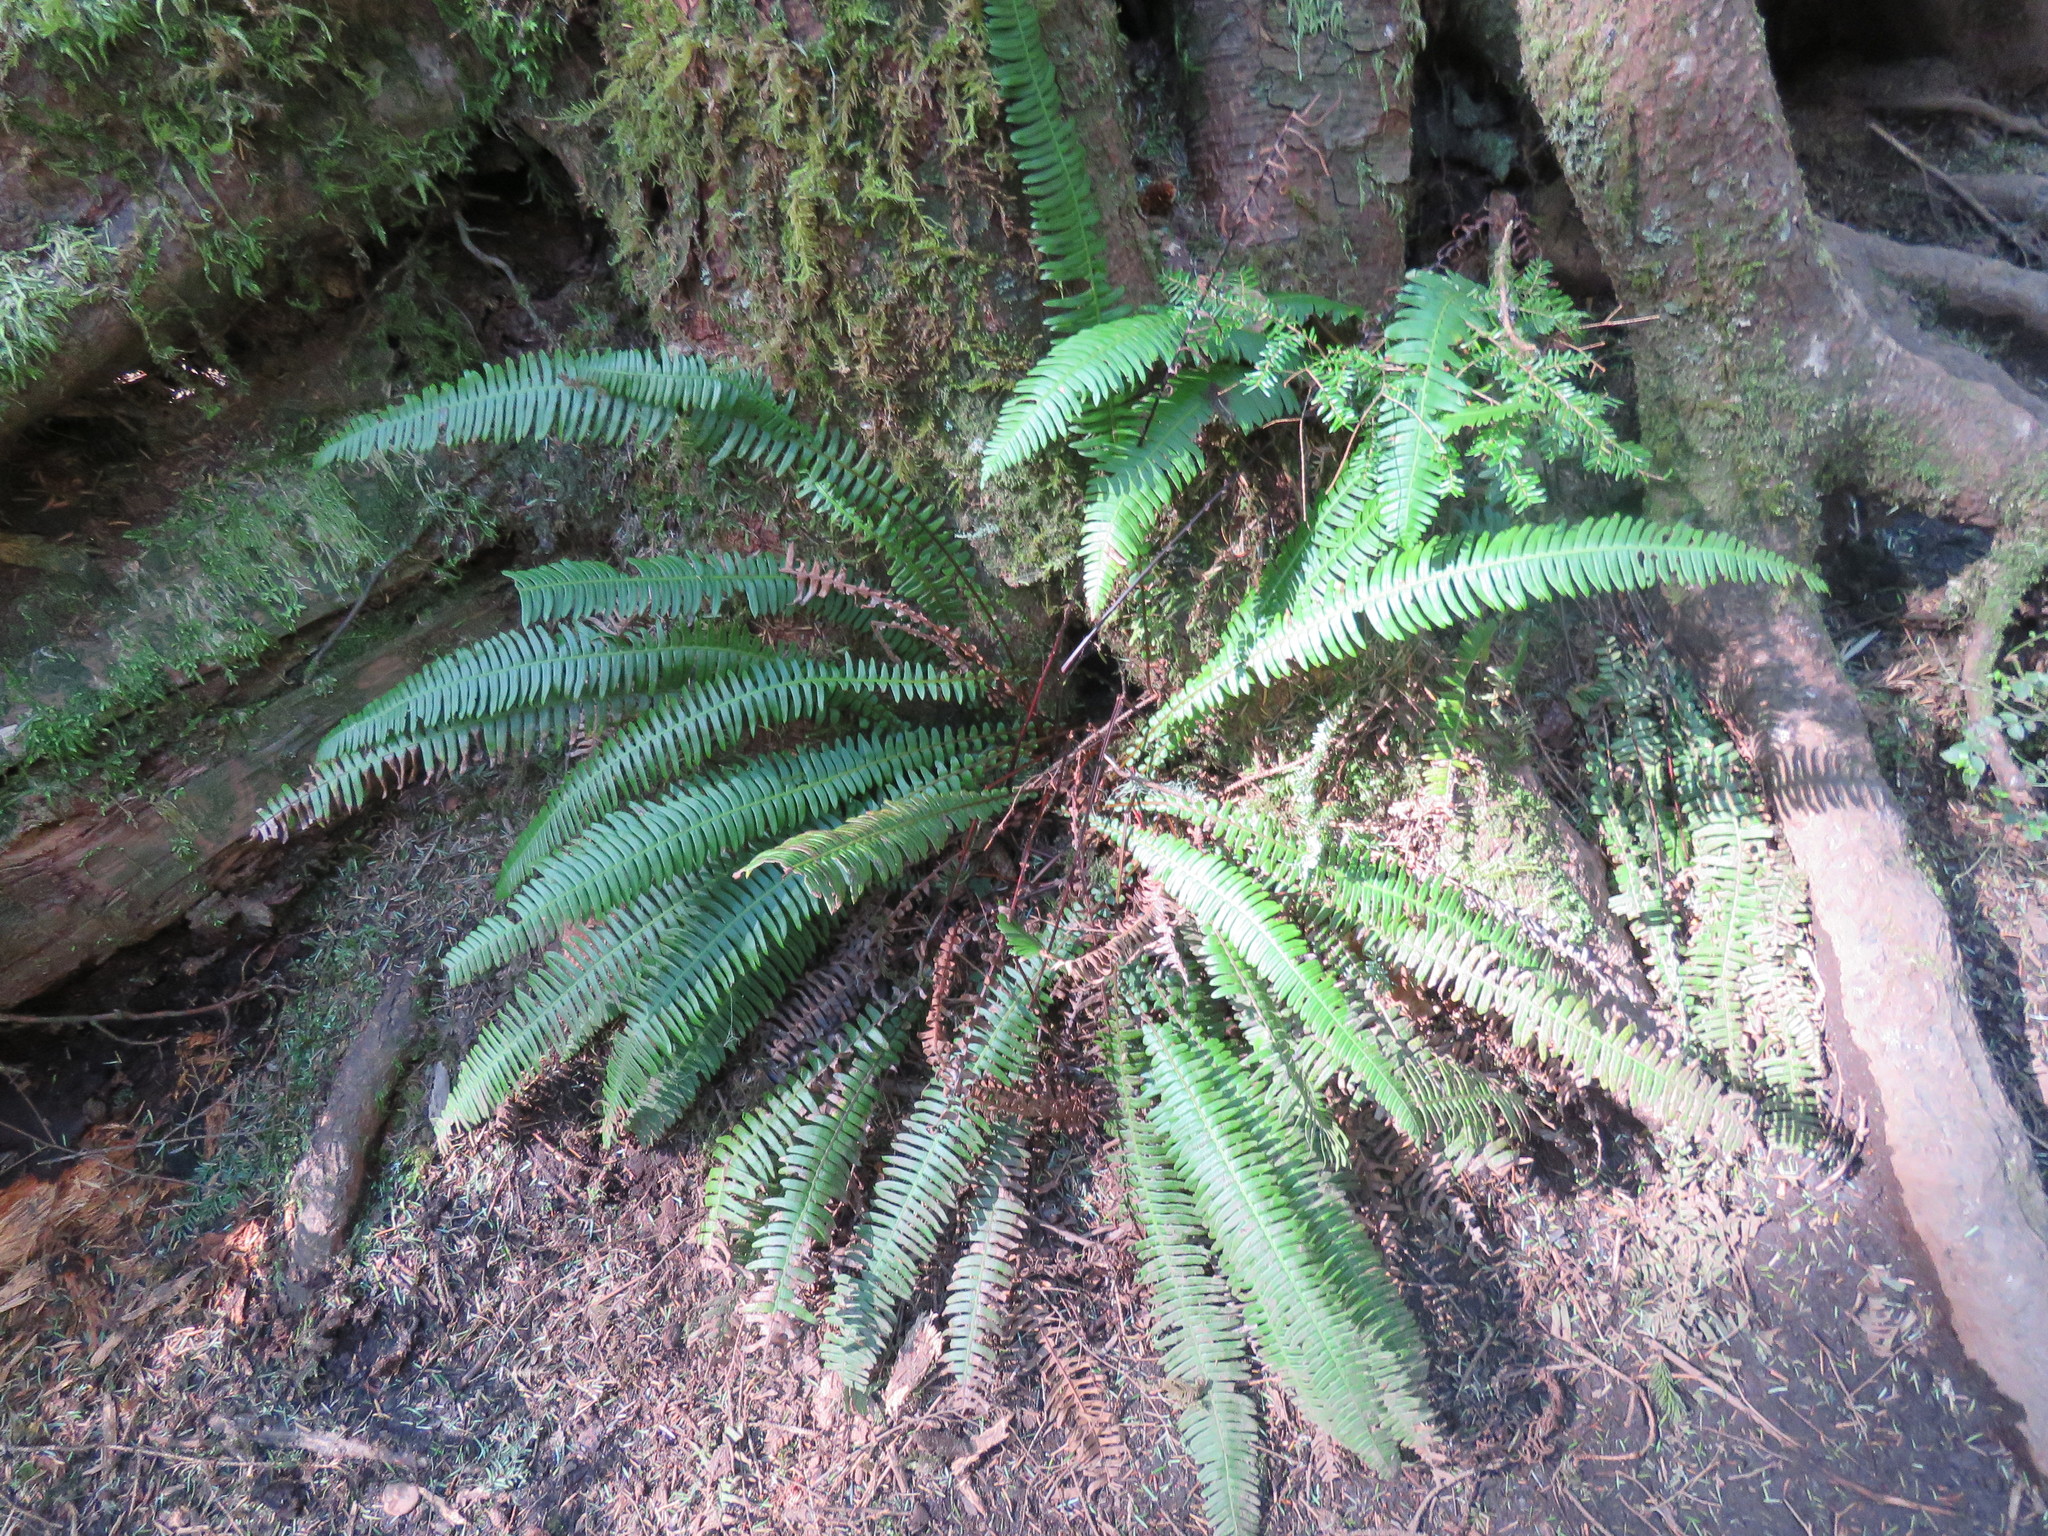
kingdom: Plantae
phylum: Tracheophyta
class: Polypodiopsida
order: Polypodiales
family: Blechnaceae
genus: Struthiopteris
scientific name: Struthiopteris spicant
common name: Deer fern
